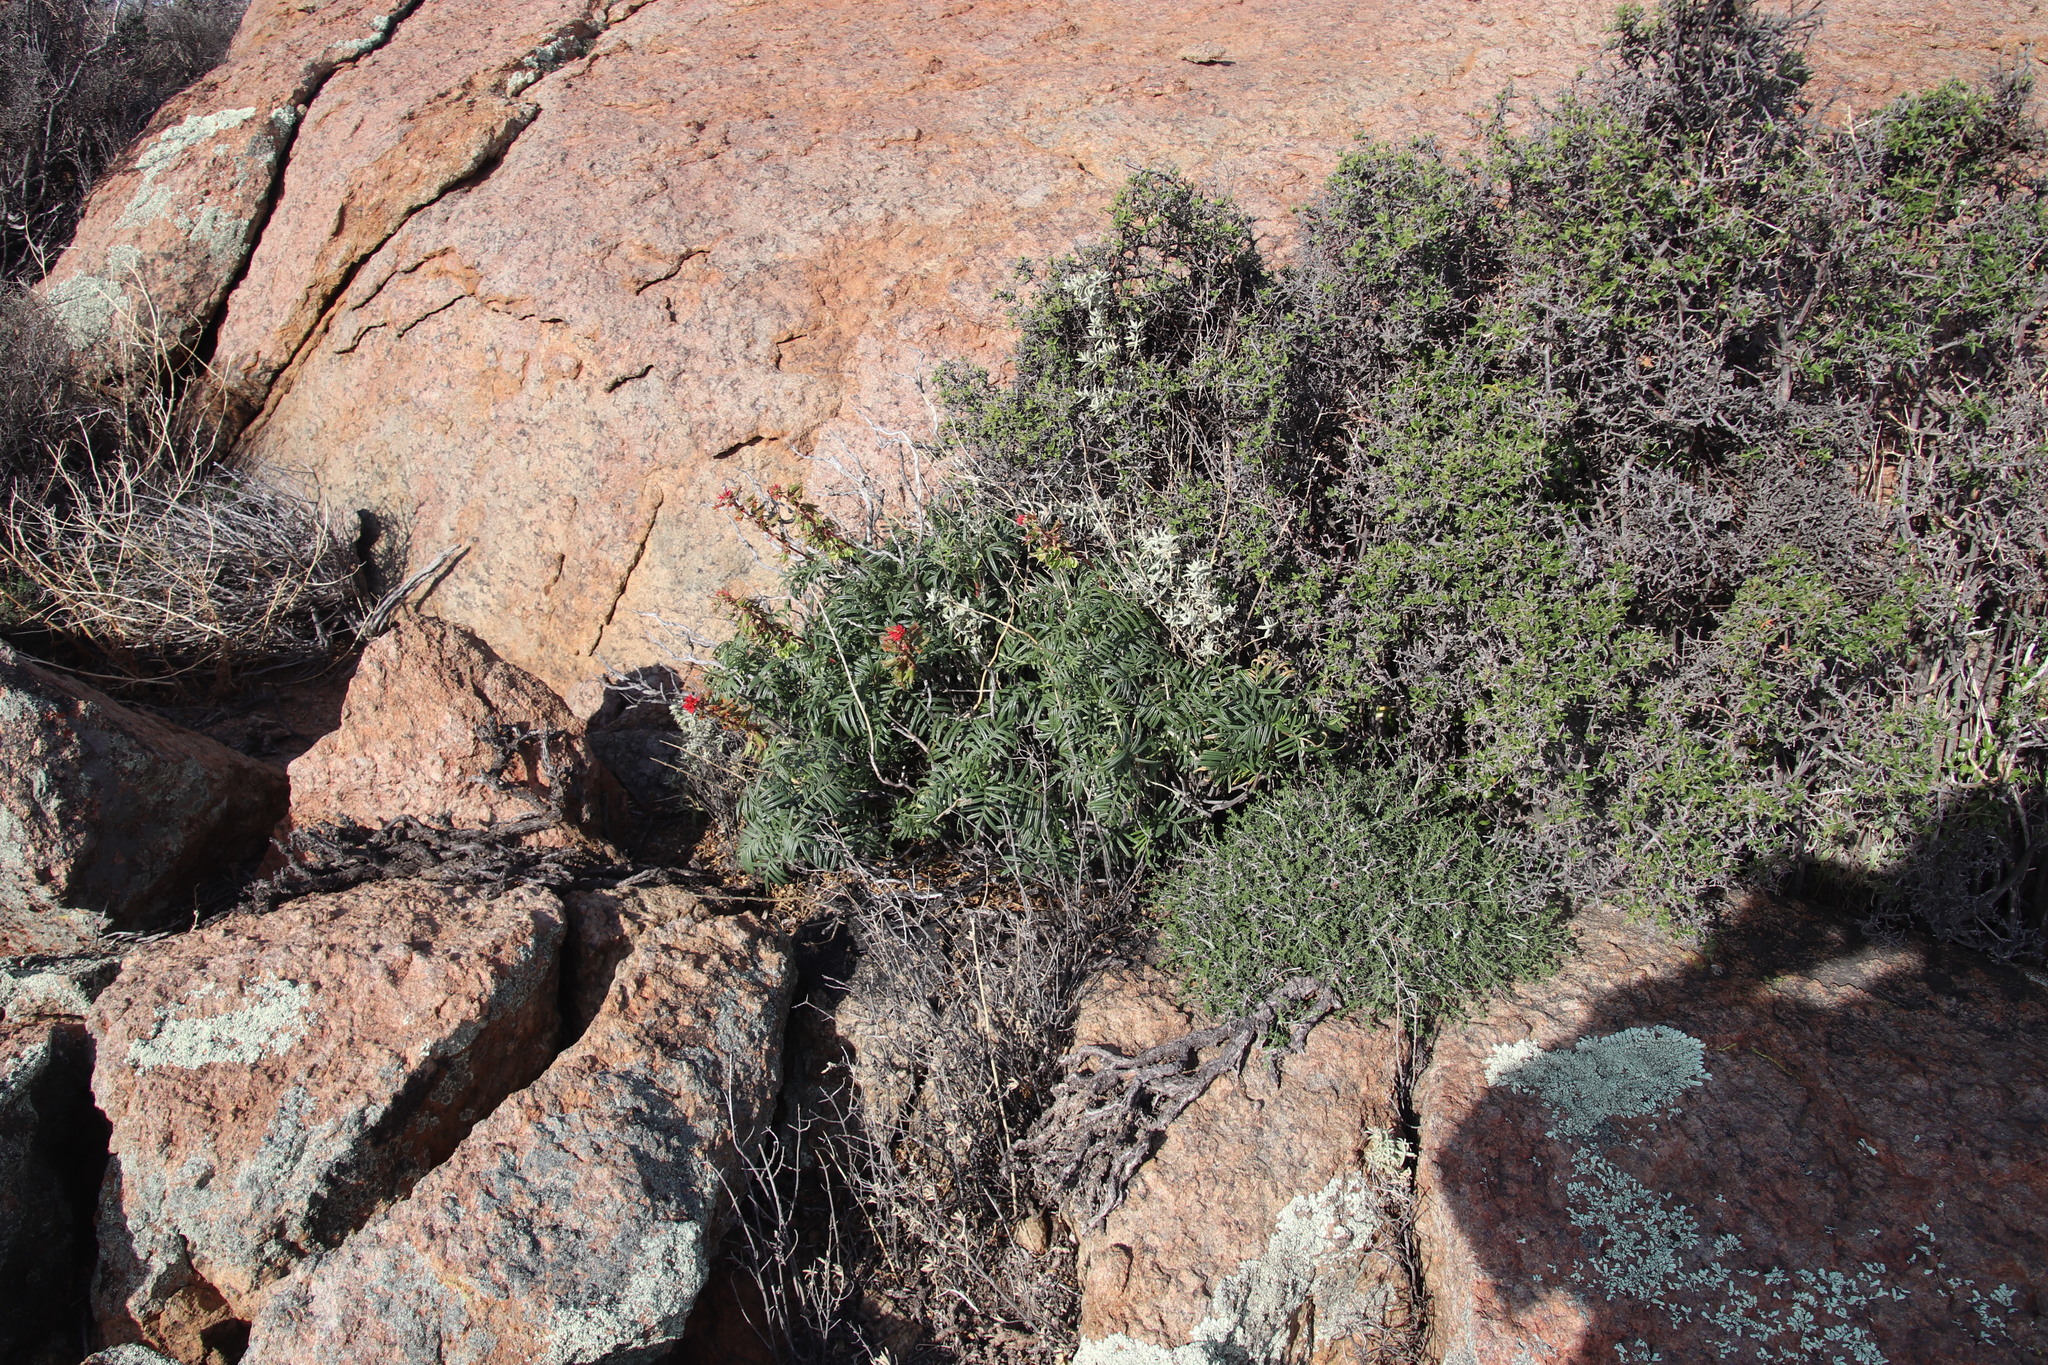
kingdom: Plantae
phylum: Tracheophyta
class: Magnoliopsida
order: Geraniales
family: Melianthaceae
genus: Melianthus
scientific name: Melianthus pectinatus
